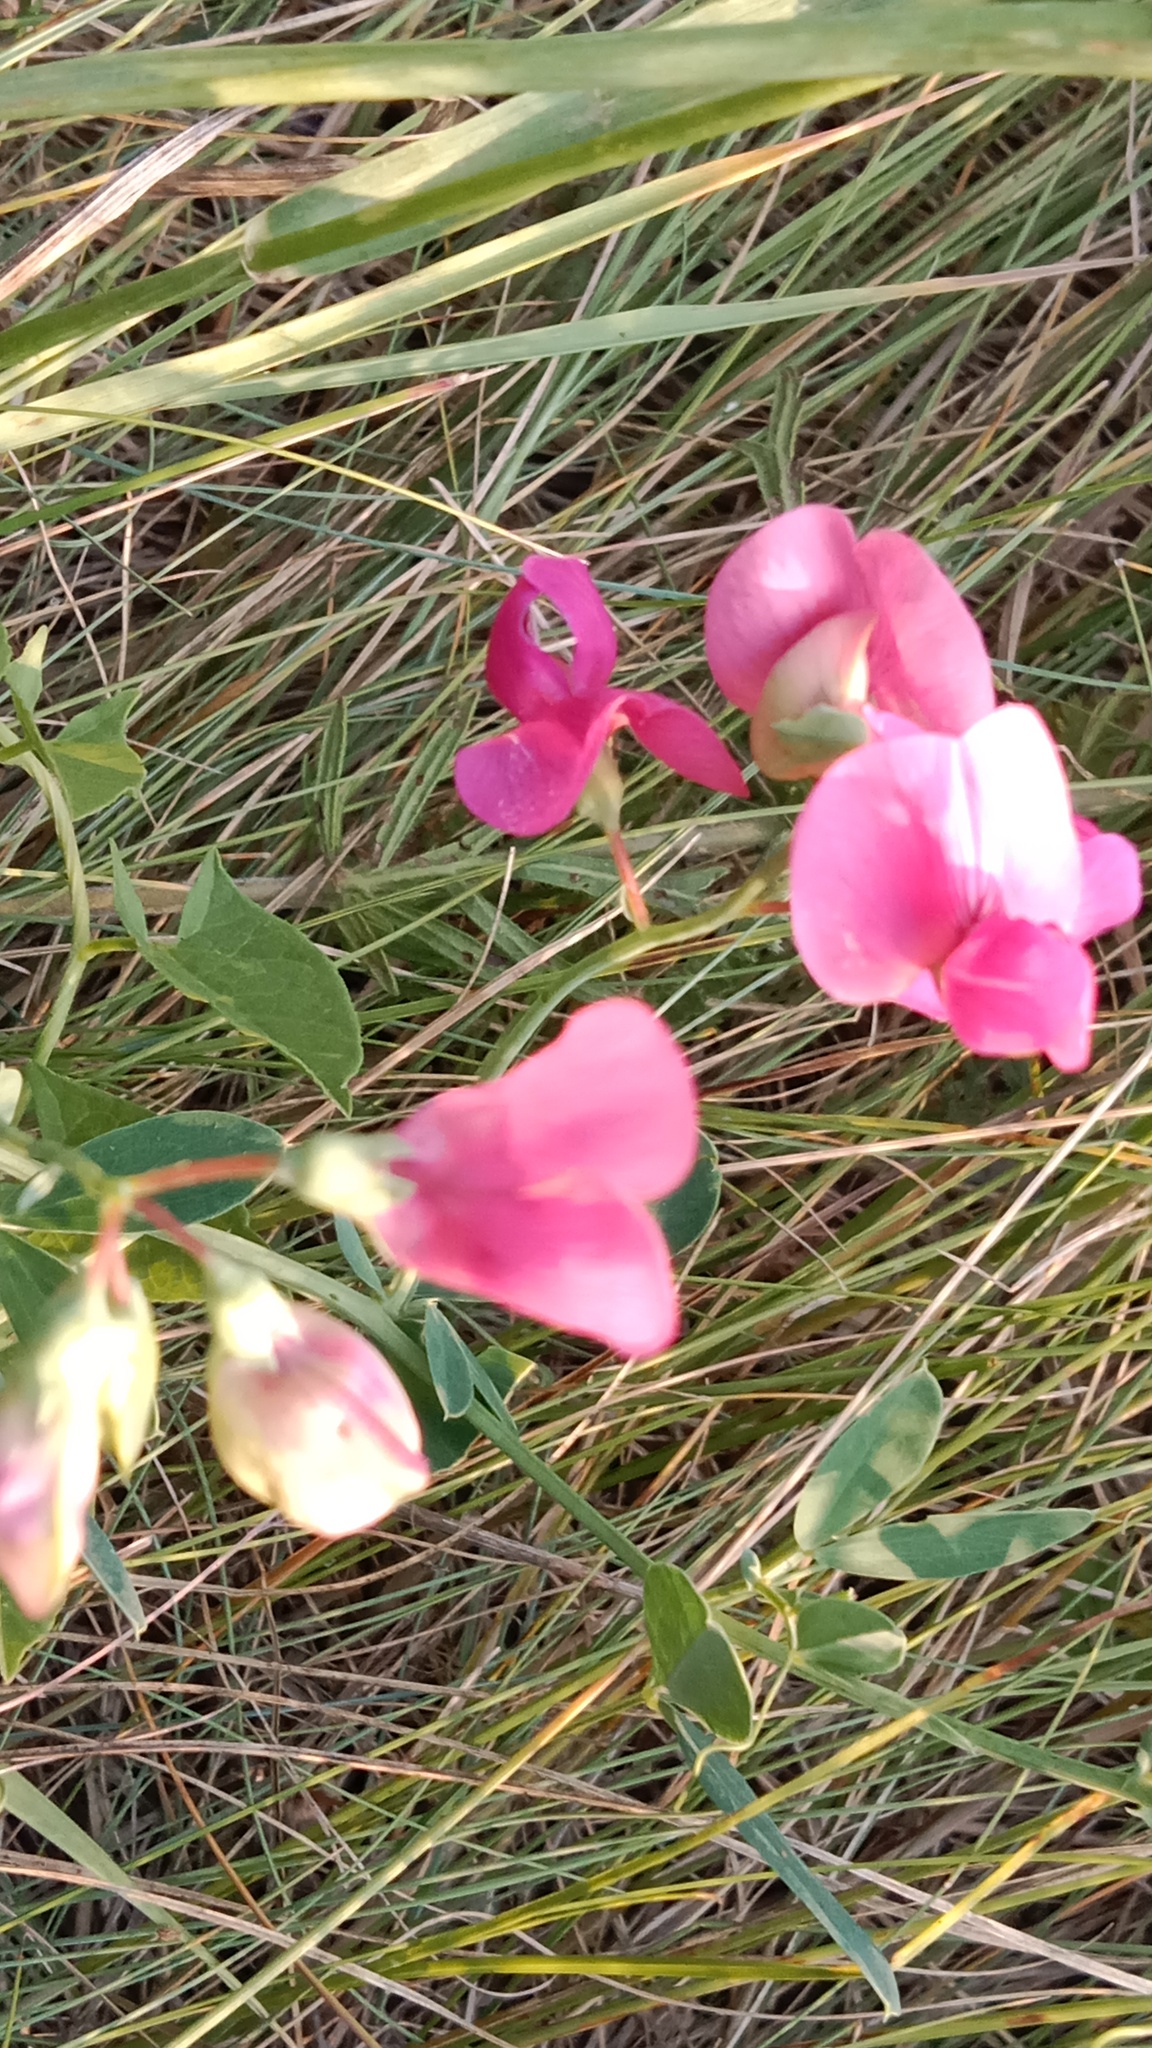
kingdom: Plantae
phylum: Tracheophyta
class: Magnoliopsida
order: Fabales
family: Fabaceae
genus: Lathyrus
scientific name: Lathyrus tuberosus
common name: Tuberous pea
